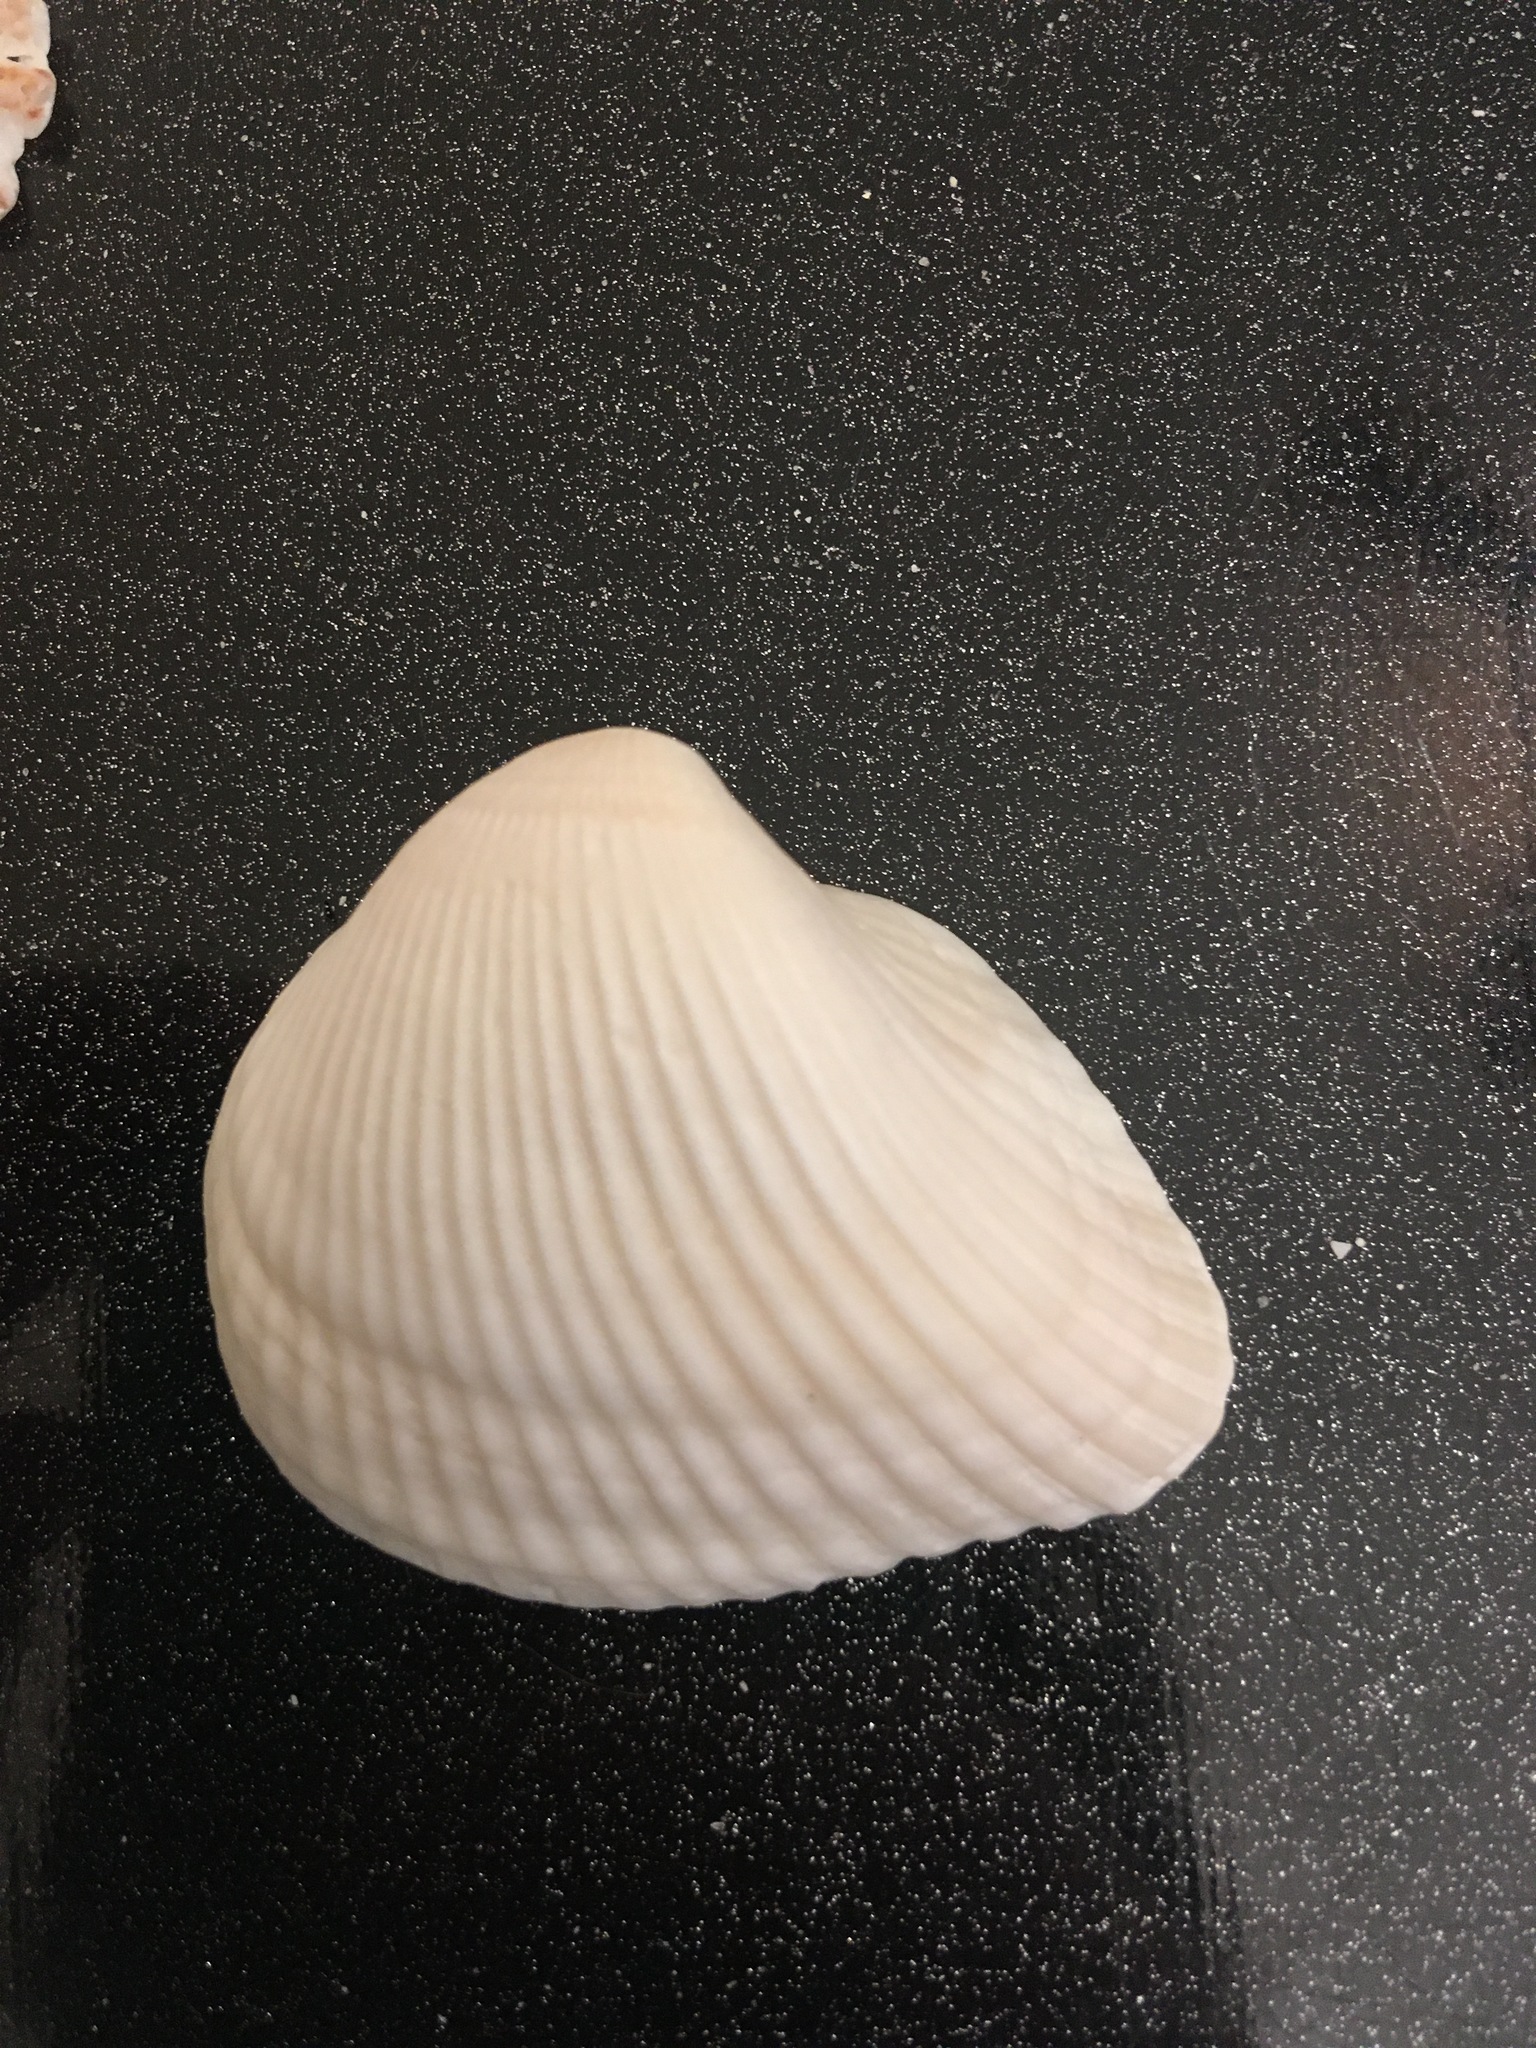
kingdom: Animalia
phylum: Mollusca
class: Bivalvia
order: Arcida
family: Noetiidae
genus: Noetia
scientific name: Noetia ponderosa
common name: Ponderous ark
